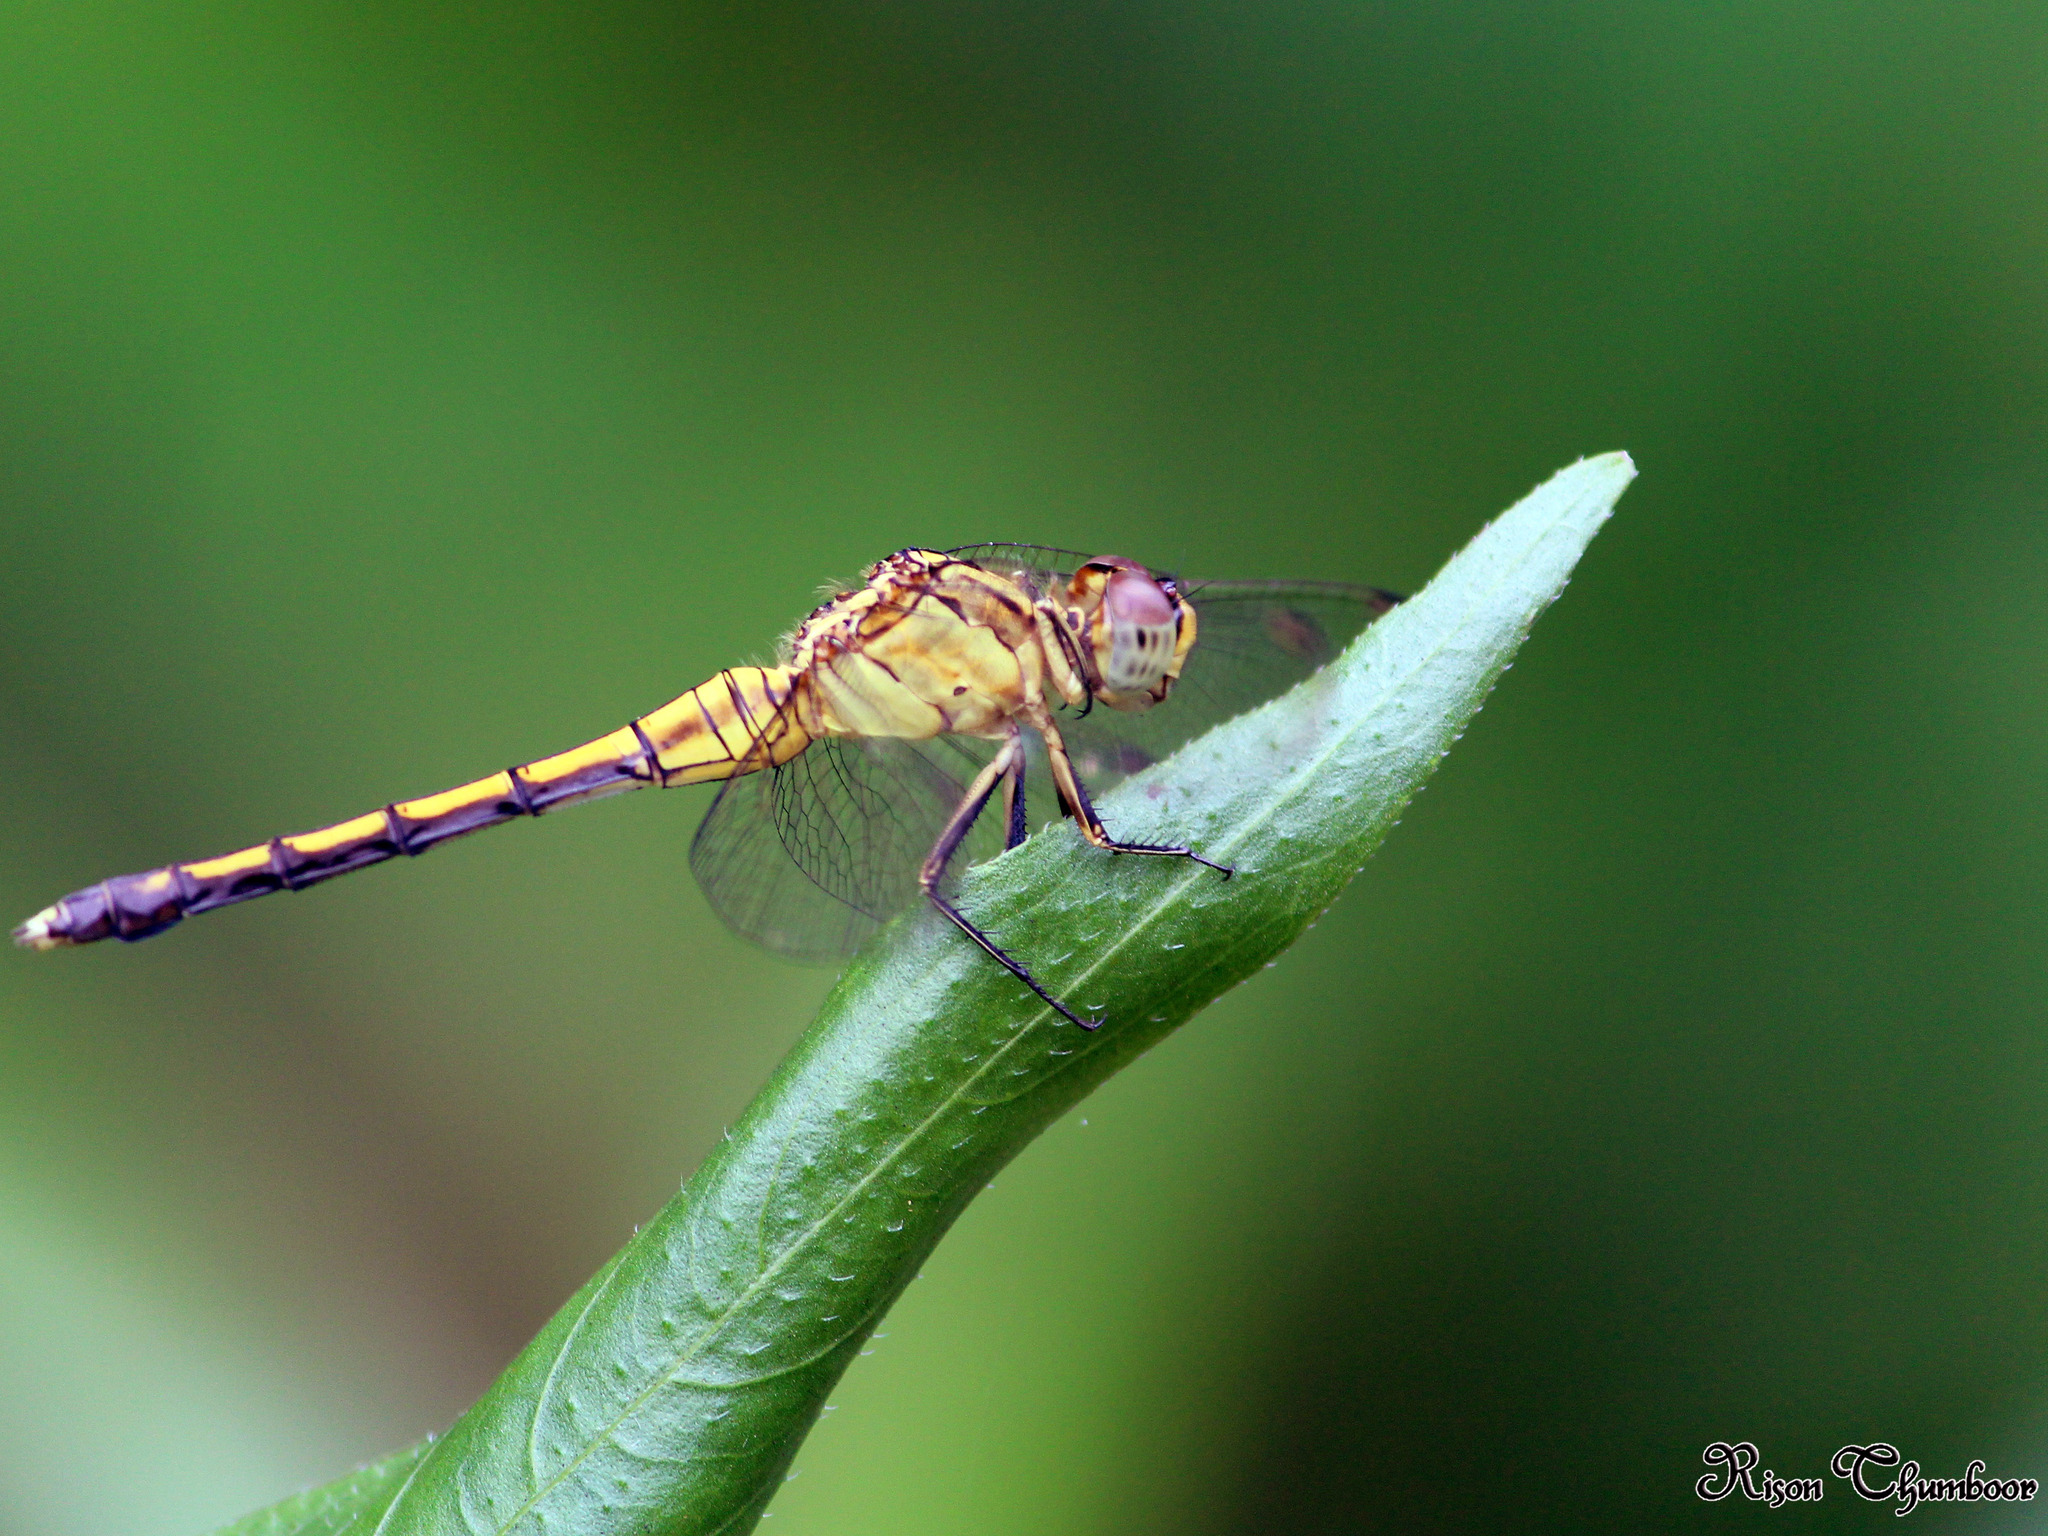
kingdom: Animalia
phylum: Arthropoda
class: Insecta
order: Odonata
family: Libellulidae
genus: Orthetrum
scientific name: Orthetrum luzonicum
